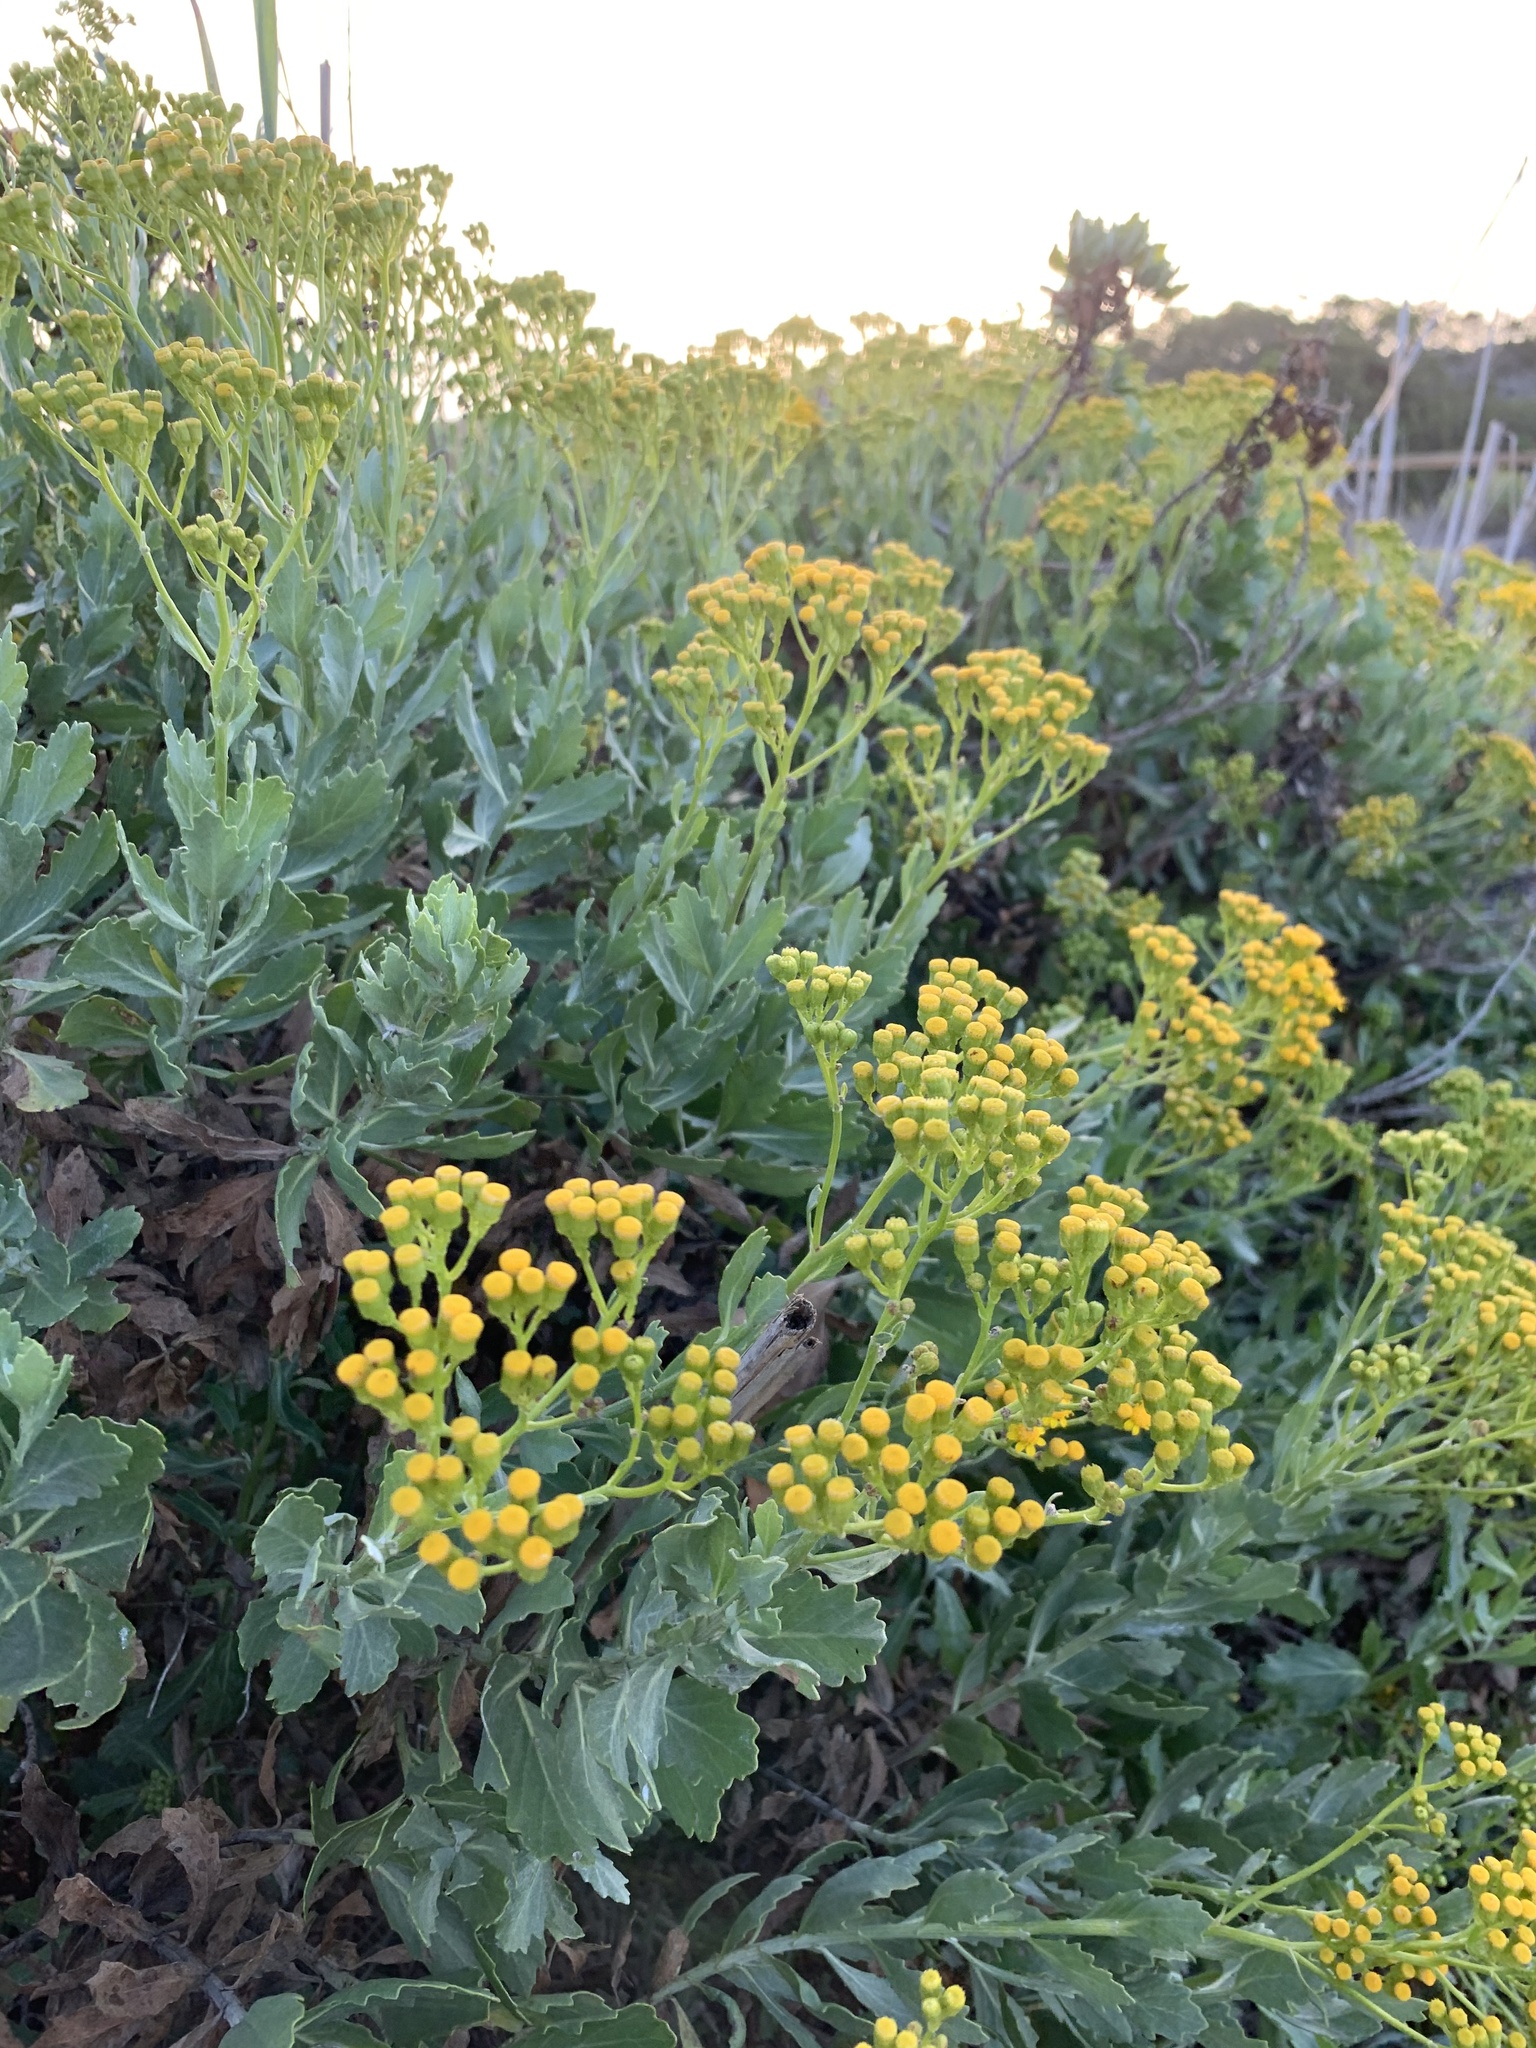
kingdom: Plantae
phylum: Tracheophyta
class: Magnoliopsida
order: Asterales
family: Asteraceae
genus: Senecio
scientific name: Senecio halimifolius
